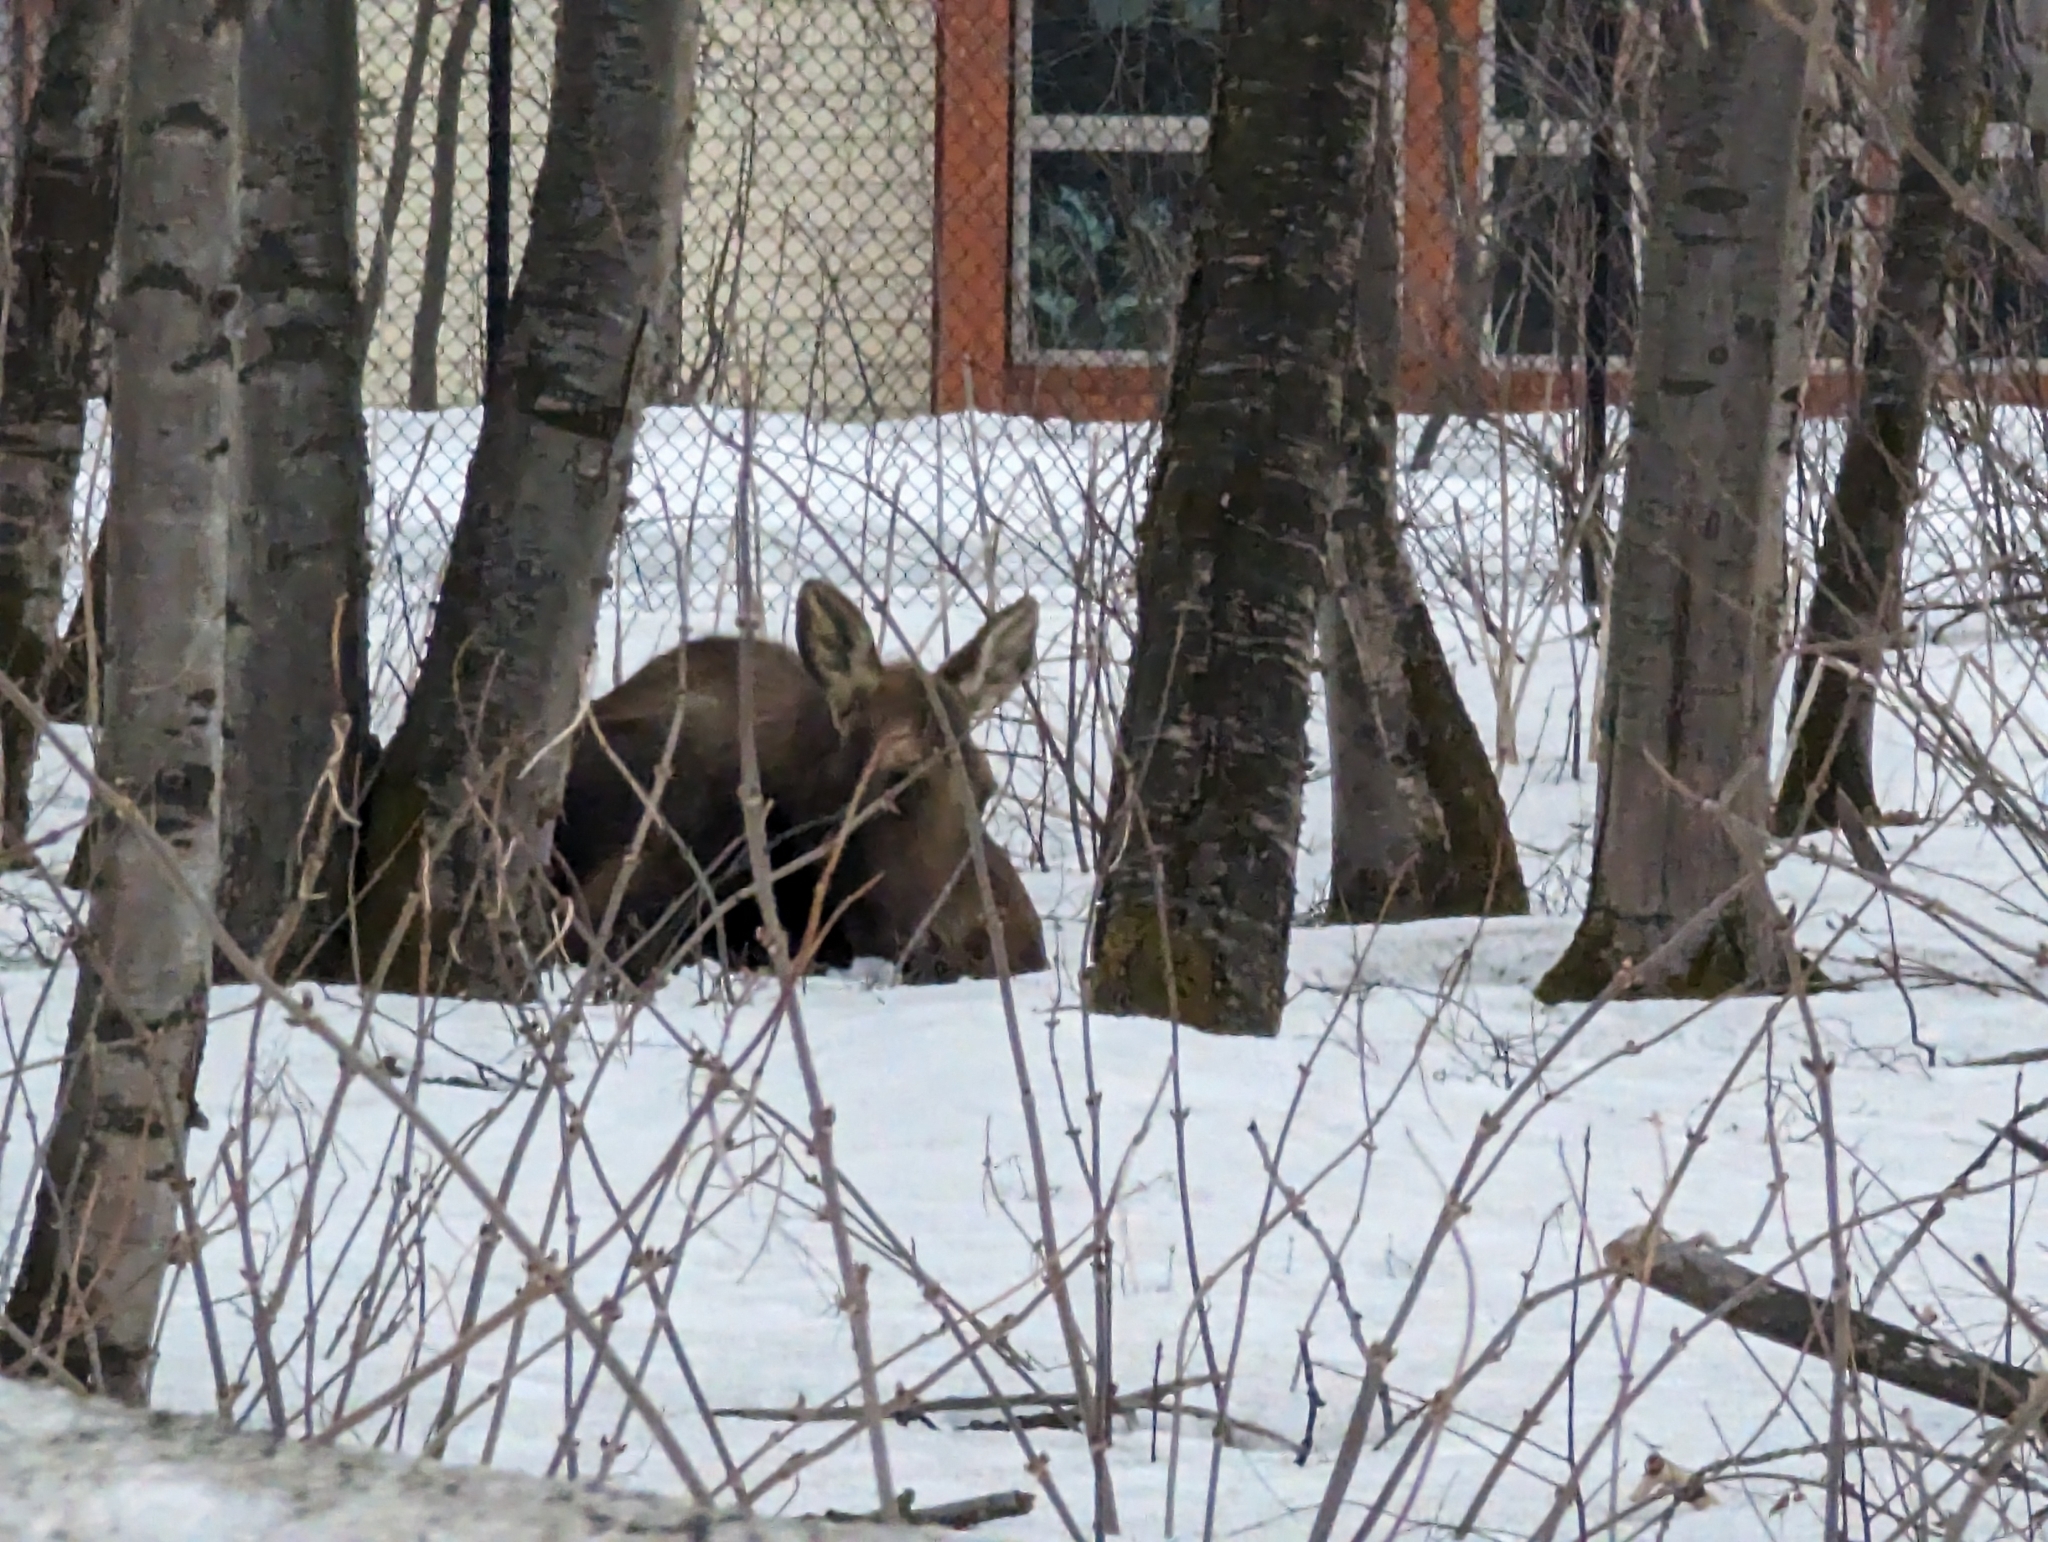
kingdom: Animalia
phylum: Chordata
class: Mammalia
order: Artiodactyla
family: Cervidae
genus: Alces
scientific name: Alces alces
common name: Moose
